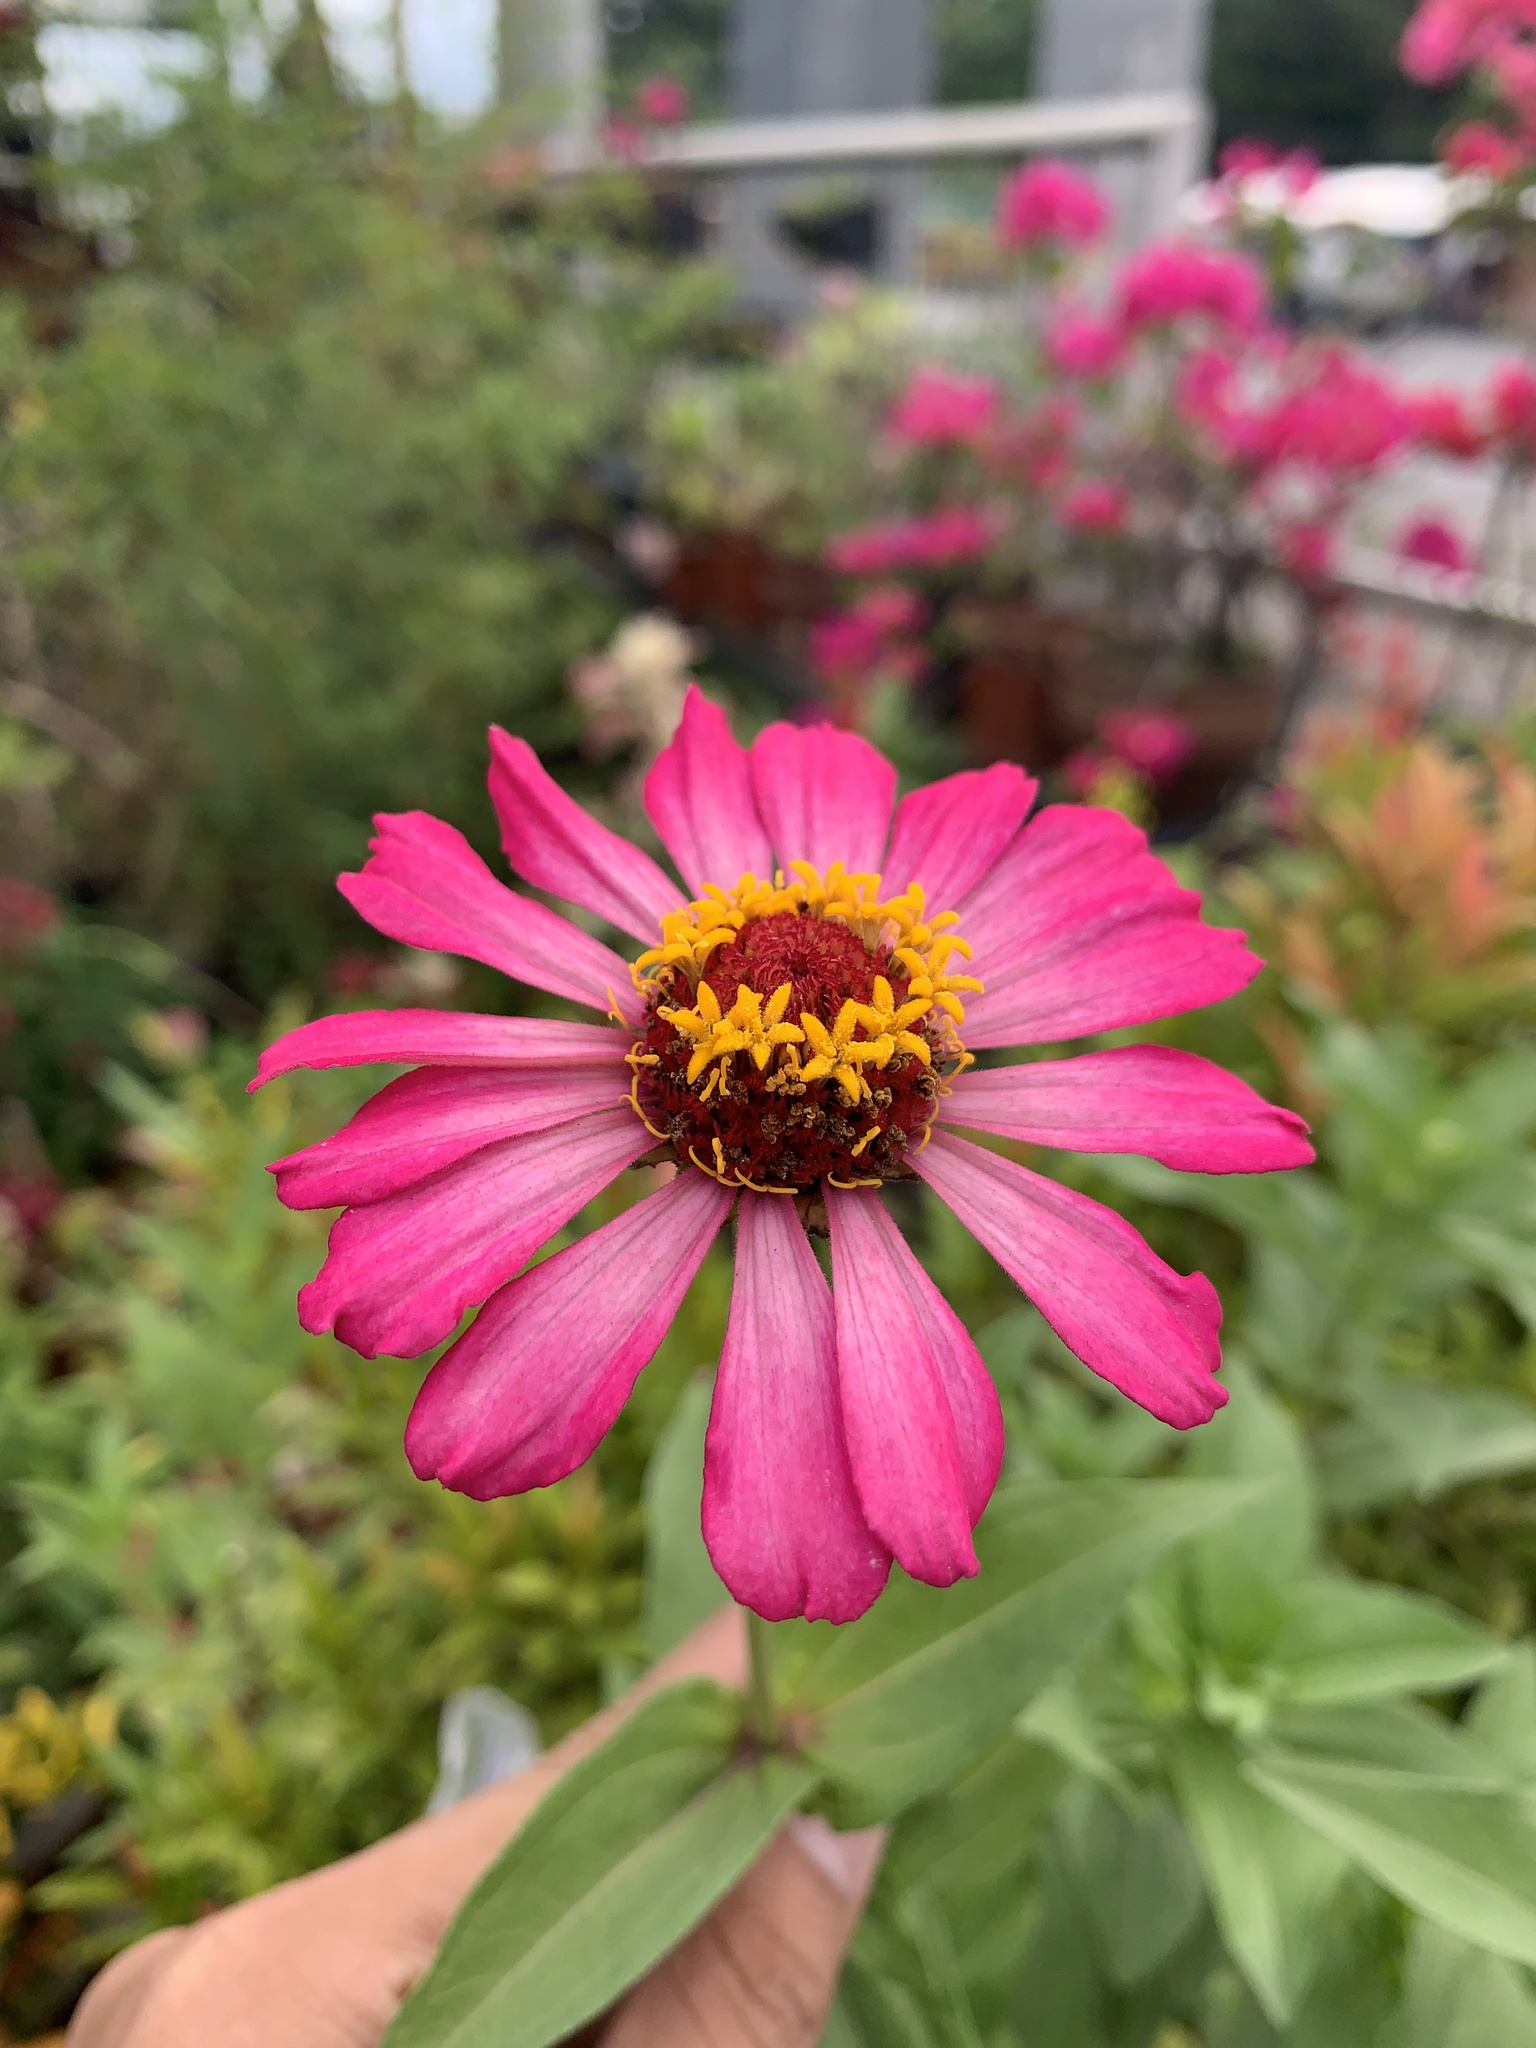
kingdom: Plantae
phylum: Tracheophyta
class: Magnoliopsida
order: Asterales
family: Asteraceae
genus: Zinnia
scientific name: Zinnia elegans
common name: Youth-and-age
